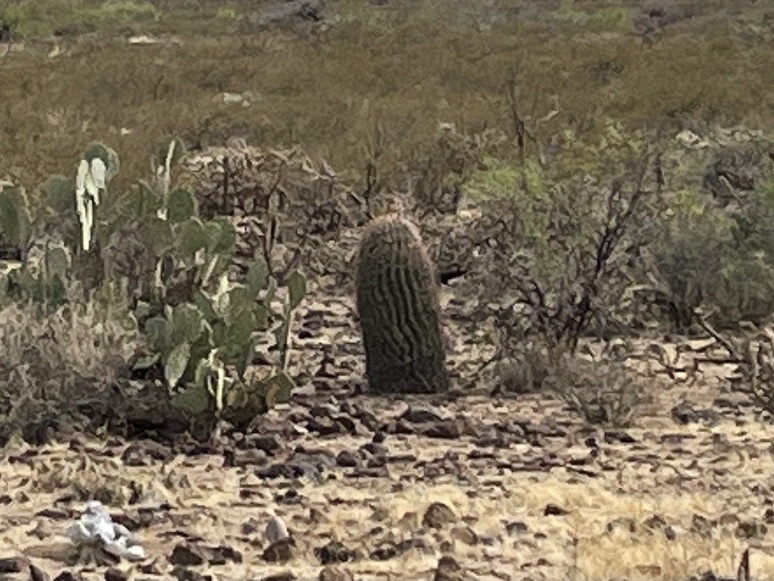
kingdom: Plantae
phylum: Tracheophyta
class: Magnoliopsida
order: Caryophyllales
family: Cactaceae
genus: Ferocactus
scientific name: Ferocactus wislizeni
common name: Candy barrel cactus
